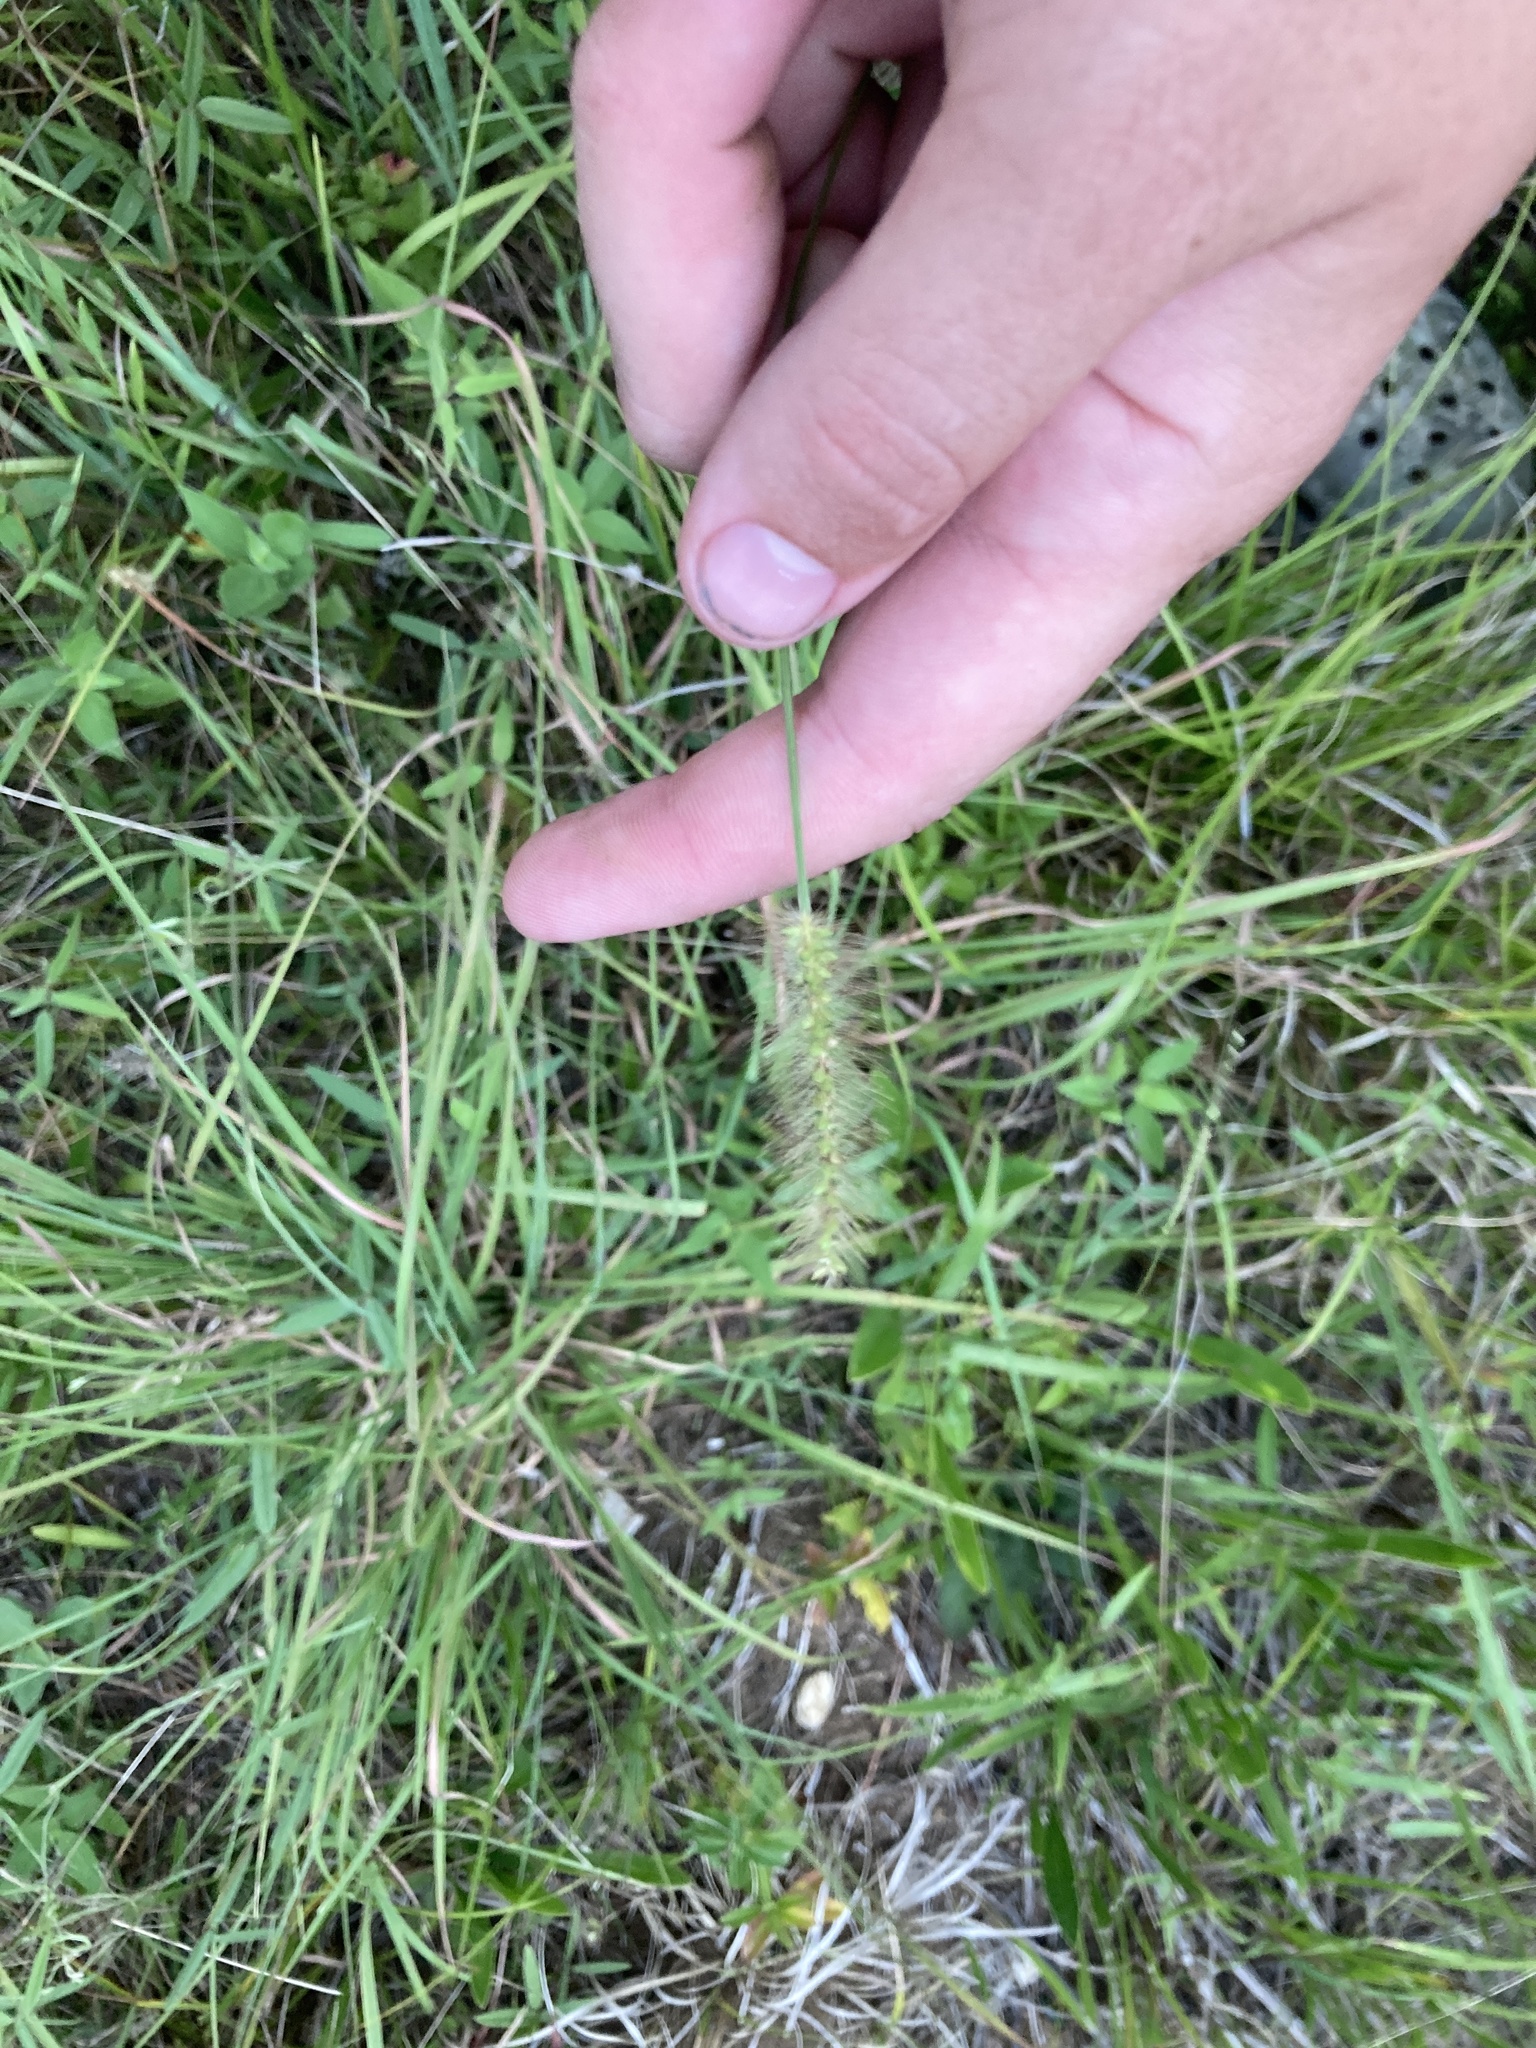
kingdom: Plantae
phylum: Tracheophyta
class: Liliopsida
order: Poales
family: Poaceae
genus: Setaria
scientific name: Setaria parviflora
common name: Knotroot bristle-grass
